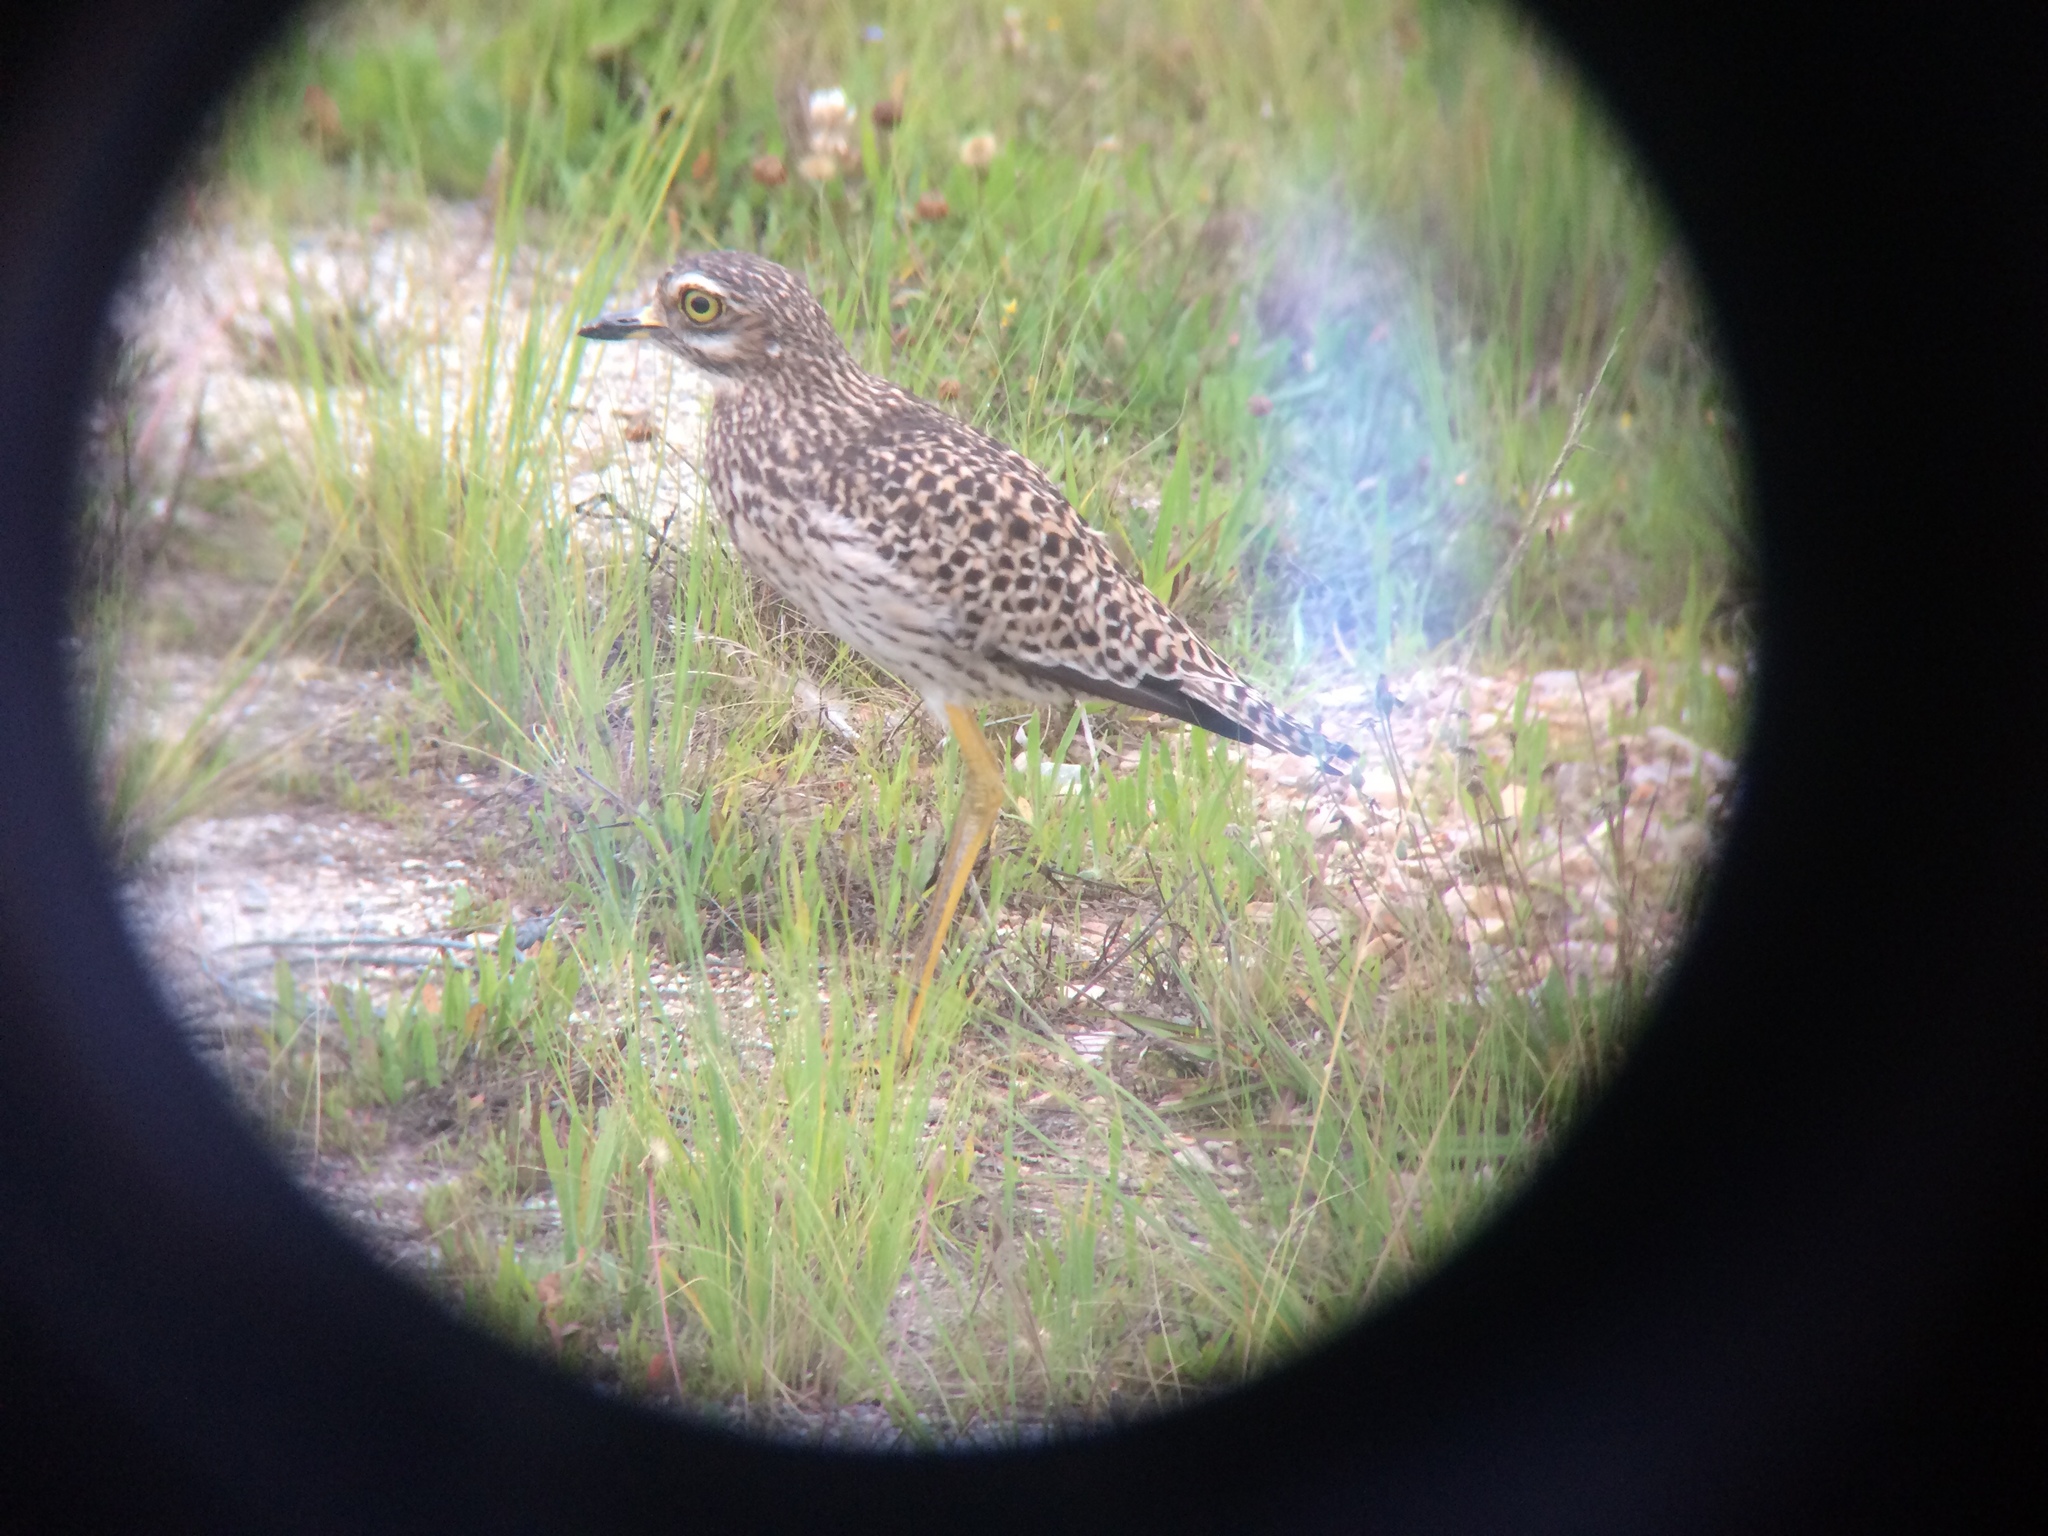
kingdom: Animalia
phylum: Chordata
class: Aves
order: Charadriiformes
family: Burhinidae
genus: Burhinus
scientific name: Burhinus capensis
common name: Spotted thick-knee
